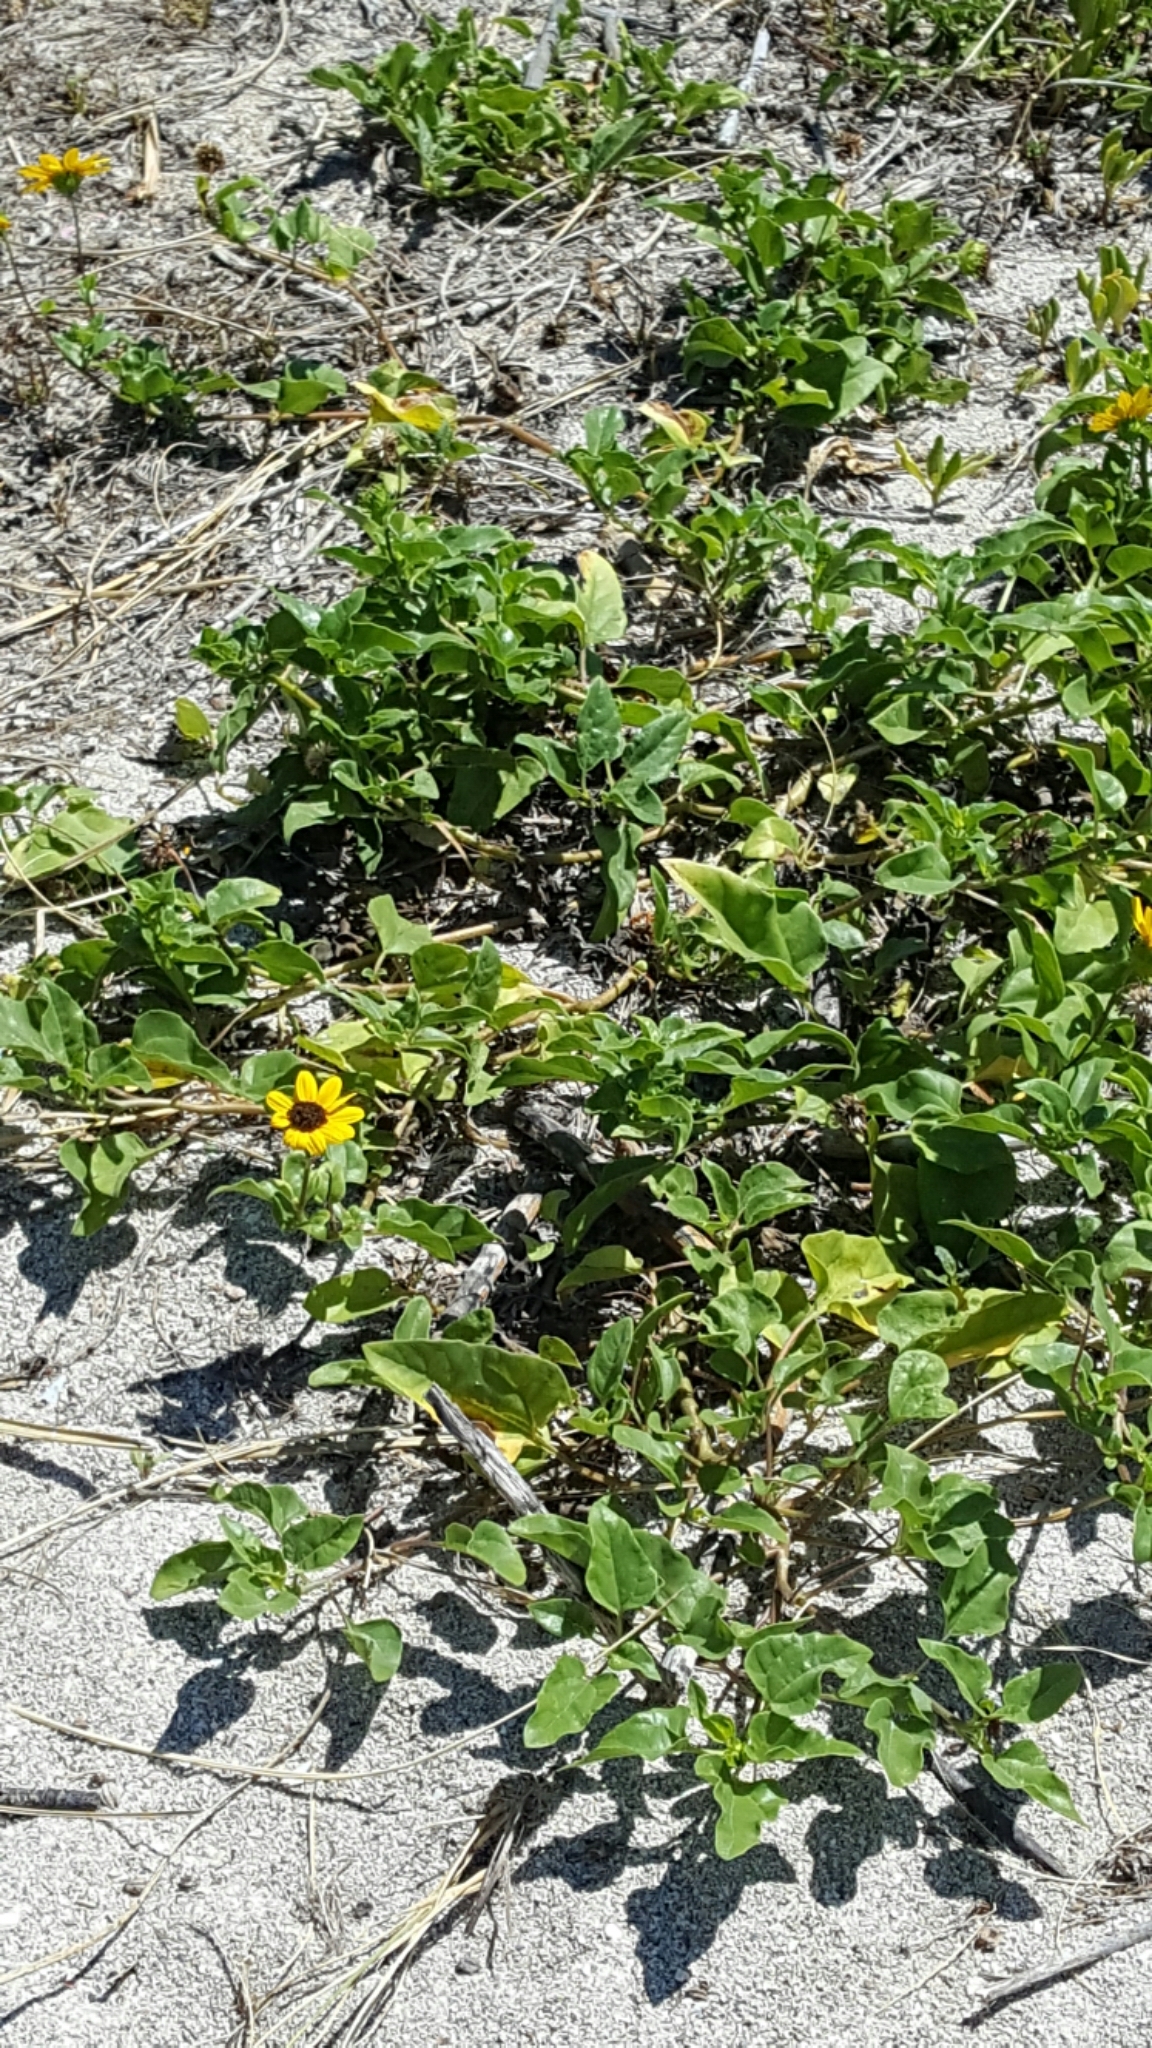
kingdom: Plantae
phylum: Tracheophyta
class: Magnoliopsida
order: Asterales
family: Asteraceae
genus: Helianthus
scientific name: Helianthus debilis
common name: Weak sunflower
